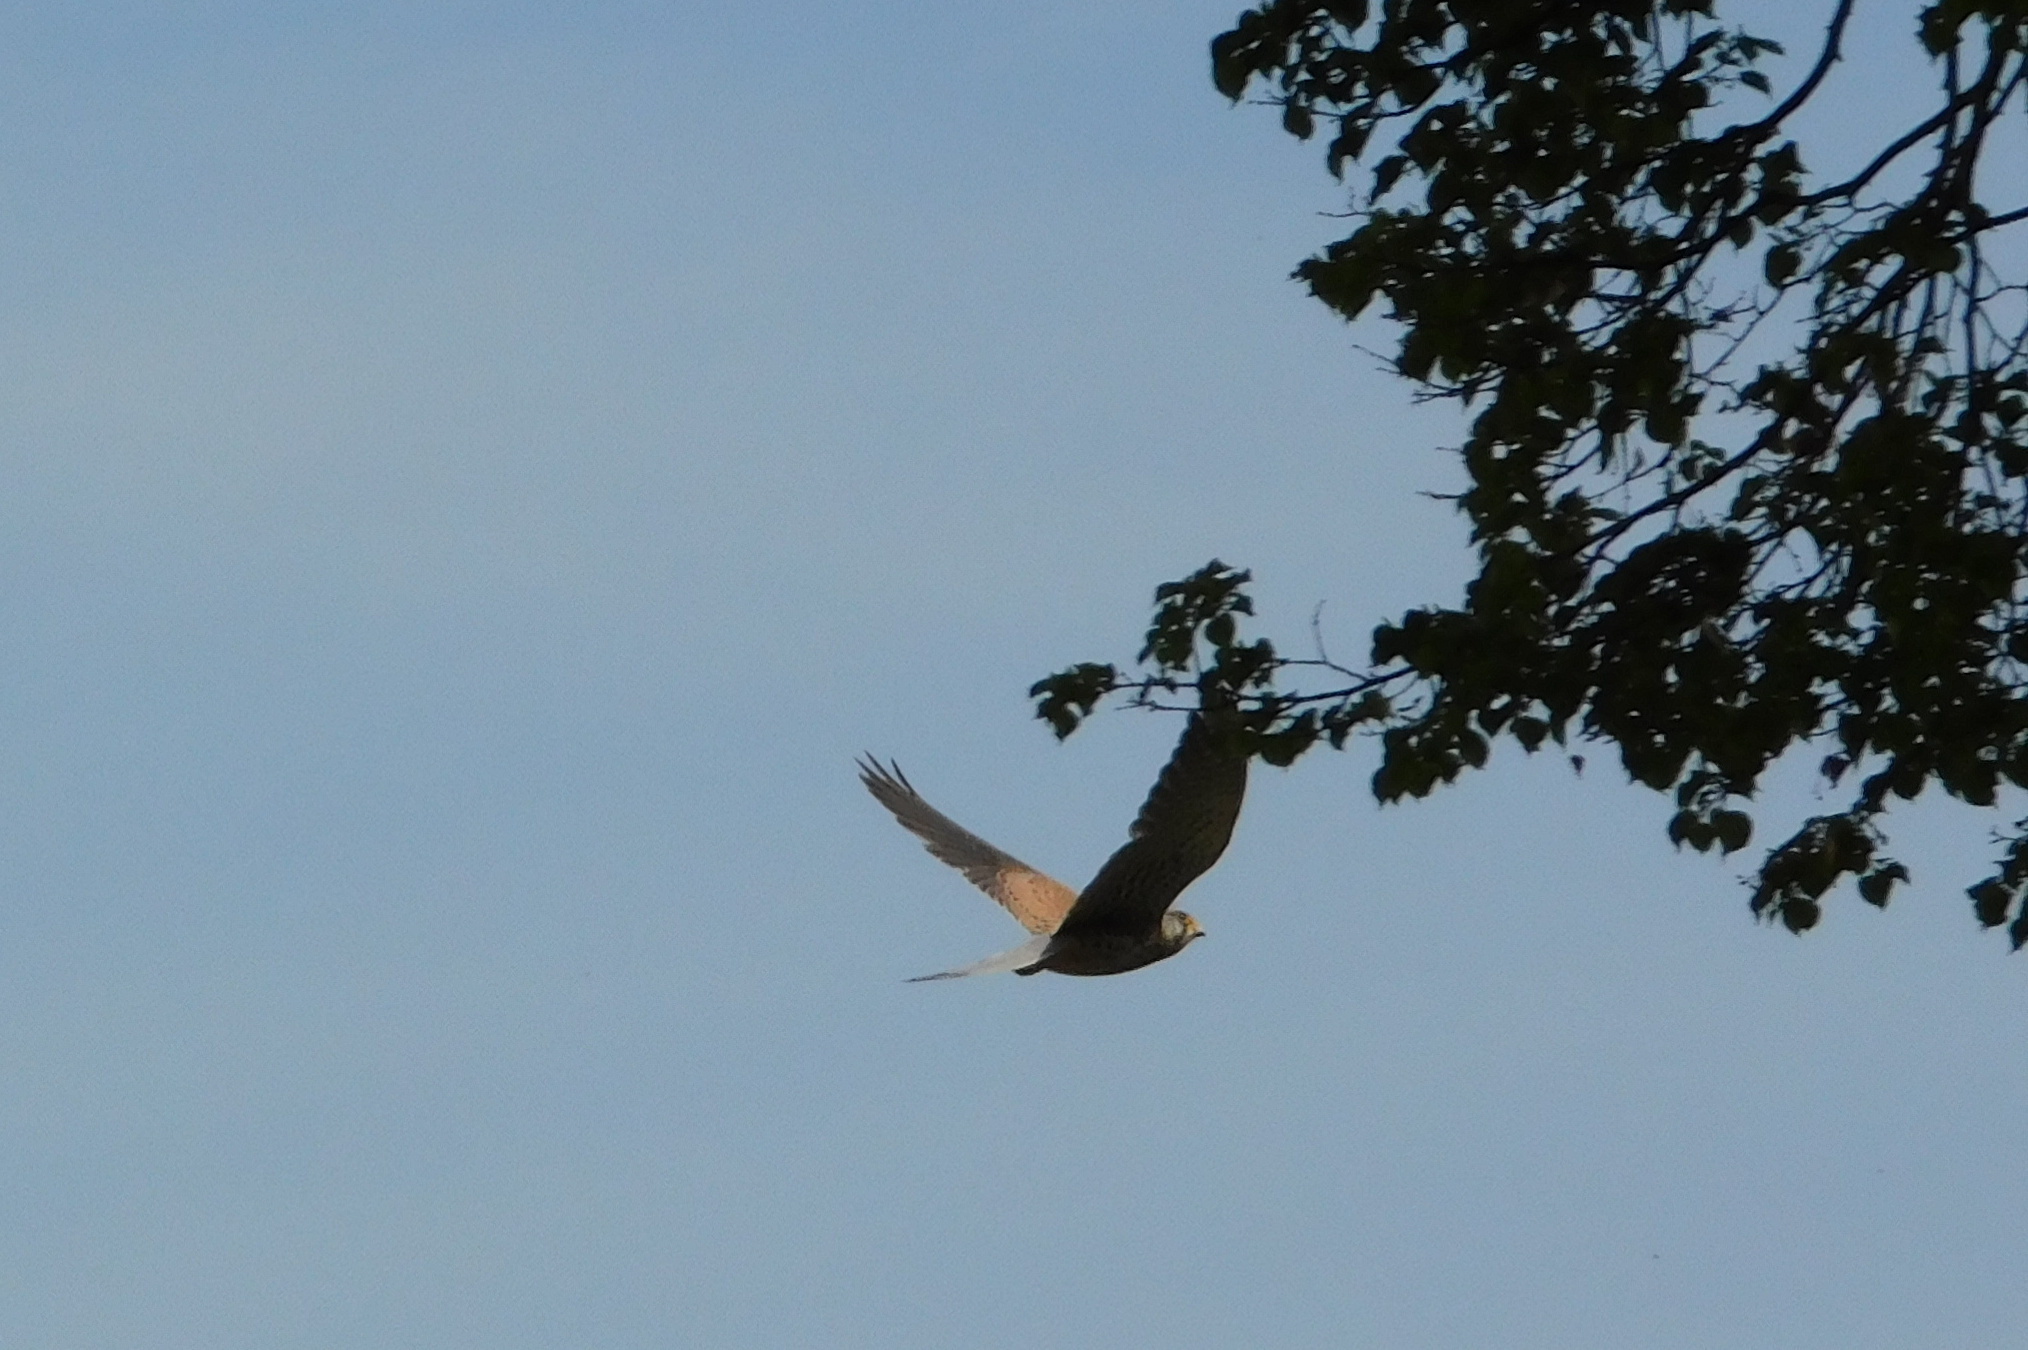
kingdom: Animalia
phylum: Chordata
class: Aves
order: Falconiformes
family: Falconidae
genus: Falco
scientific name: Falco tinnunculus
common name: Common kestrel
